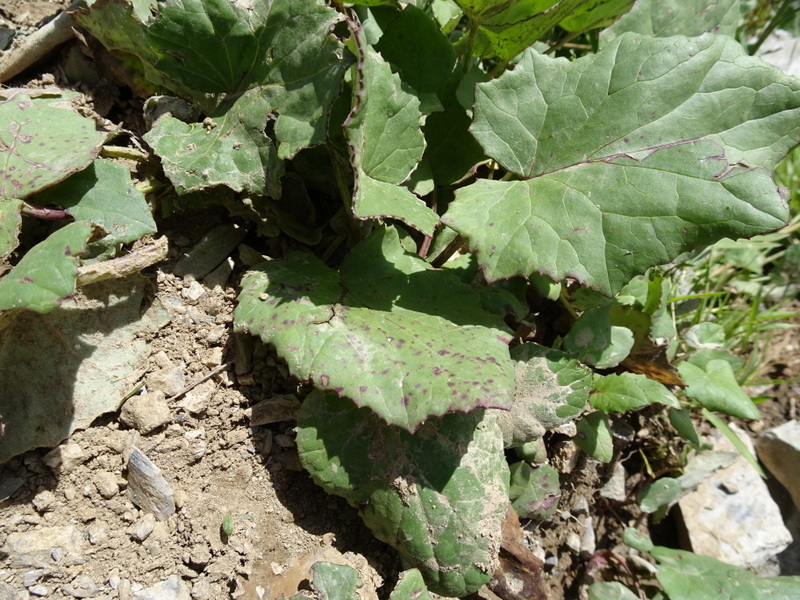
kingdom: Plantae
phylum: Tracheophyta
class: Magnoliopsida
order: Asterales
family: Asteraceae
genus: Tussilago
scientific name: Tussilago farfara
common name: Coltsfoot
